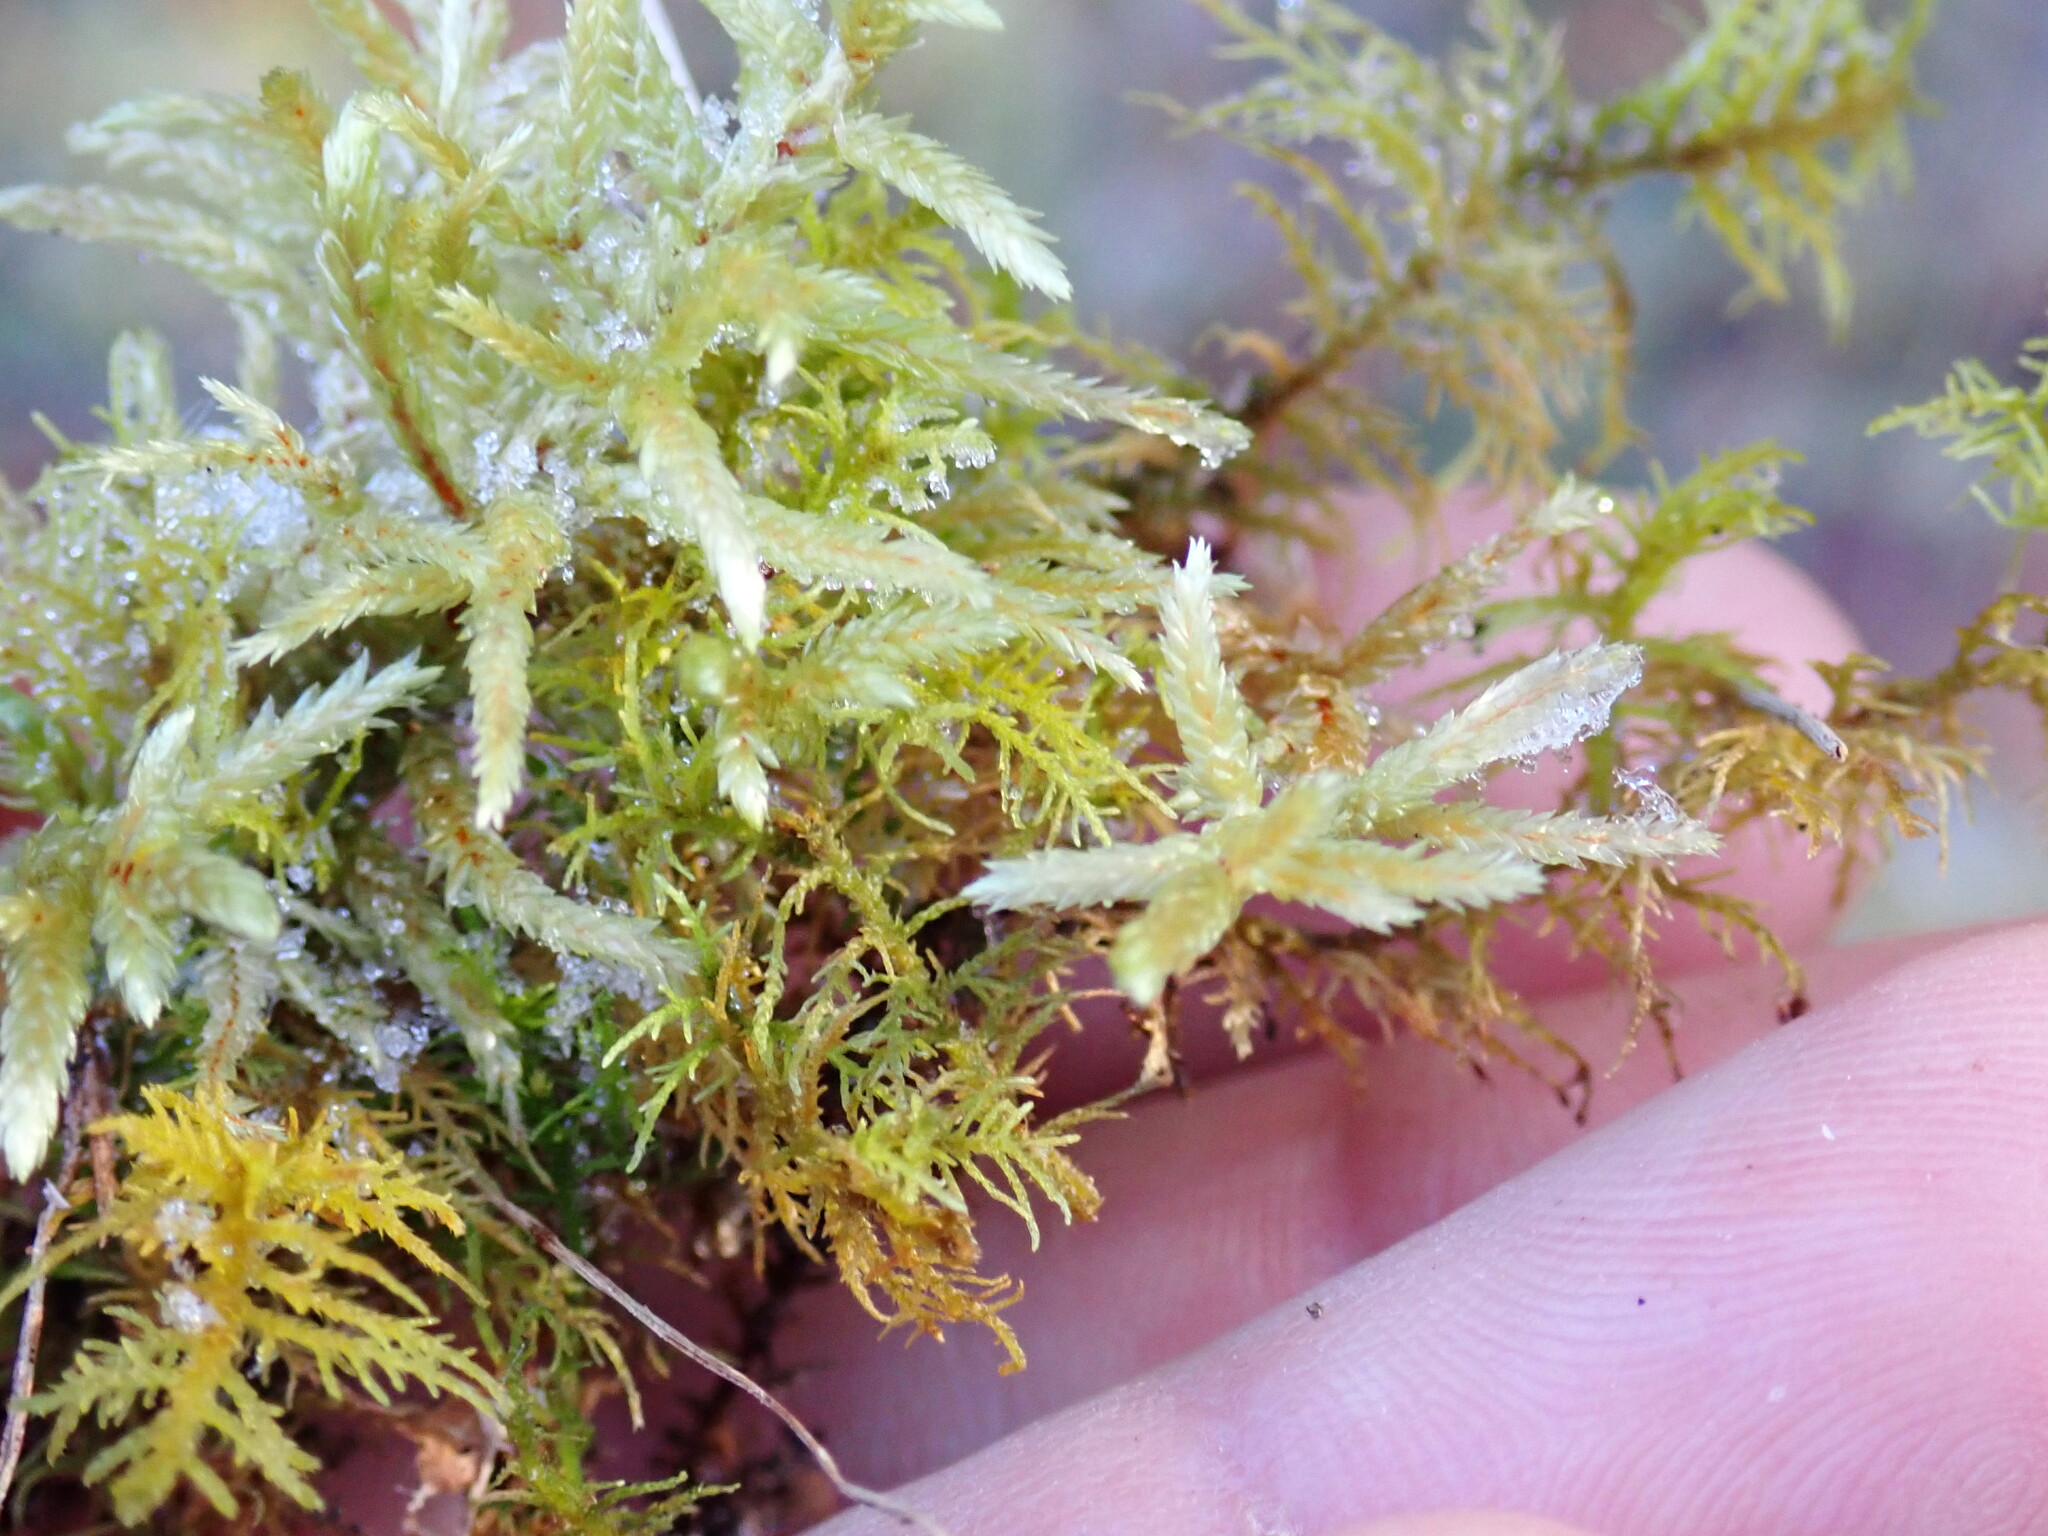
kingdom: Plantae
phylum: Bryophyta
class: Bryopsida
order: Hypnales
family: Hylocomiaceae
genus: Pleurozium
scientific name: Pleurozium schreberi
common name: Red-stemmed feather moss
